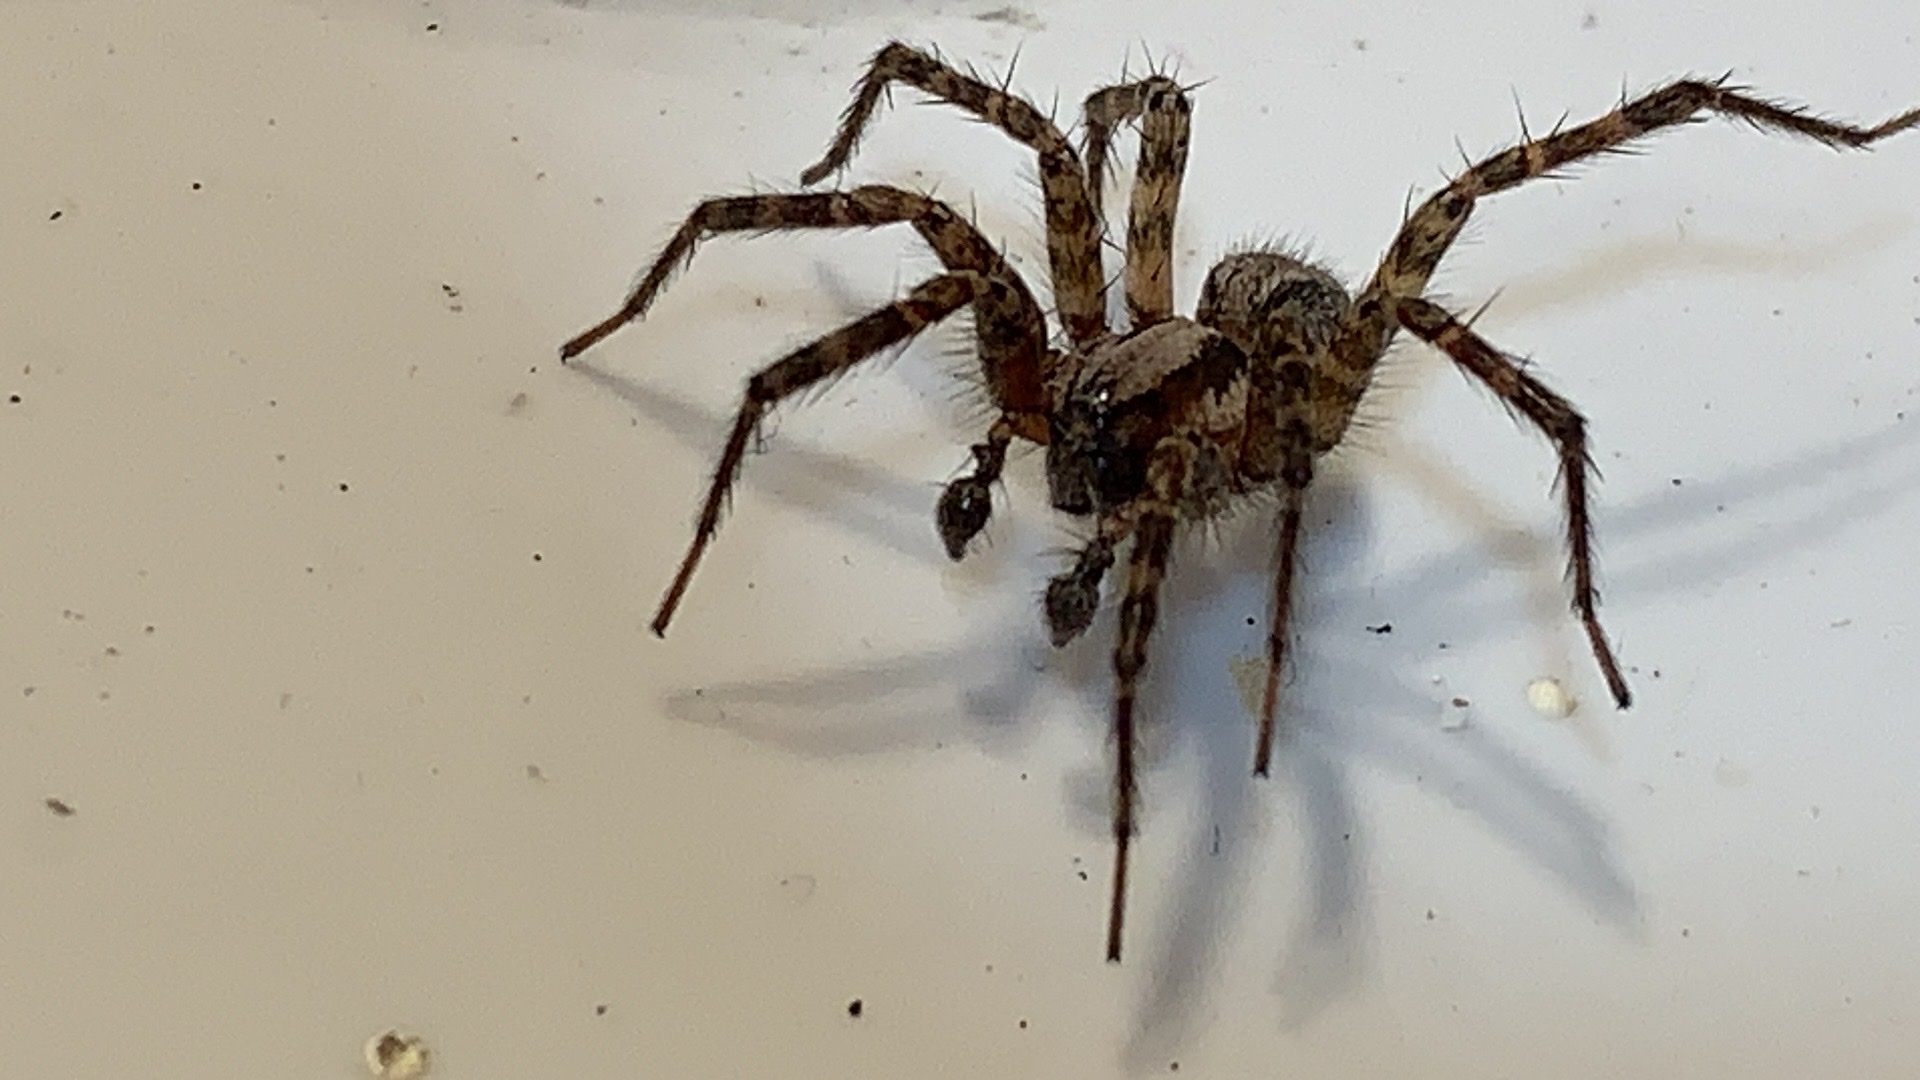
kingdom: Animalia
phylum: Arthropoda
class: Arachnida
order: Araneae
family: Agelenidae
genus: Hololena
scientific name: Hololena
